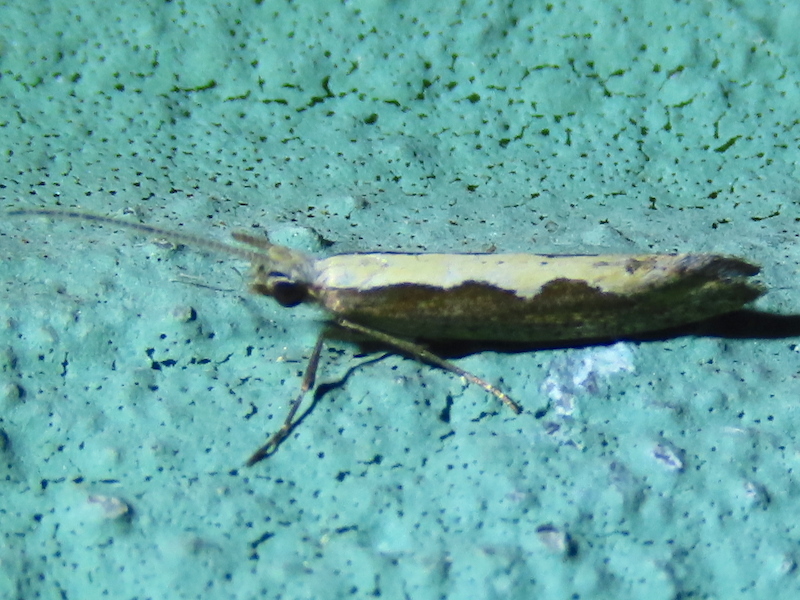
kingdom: Animalia
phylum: Arthropoda
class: Insecta
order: Lepidoptera
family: Plutellidae
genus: Plutella
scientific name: Plutella xylostella
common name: Diamond-back moth
